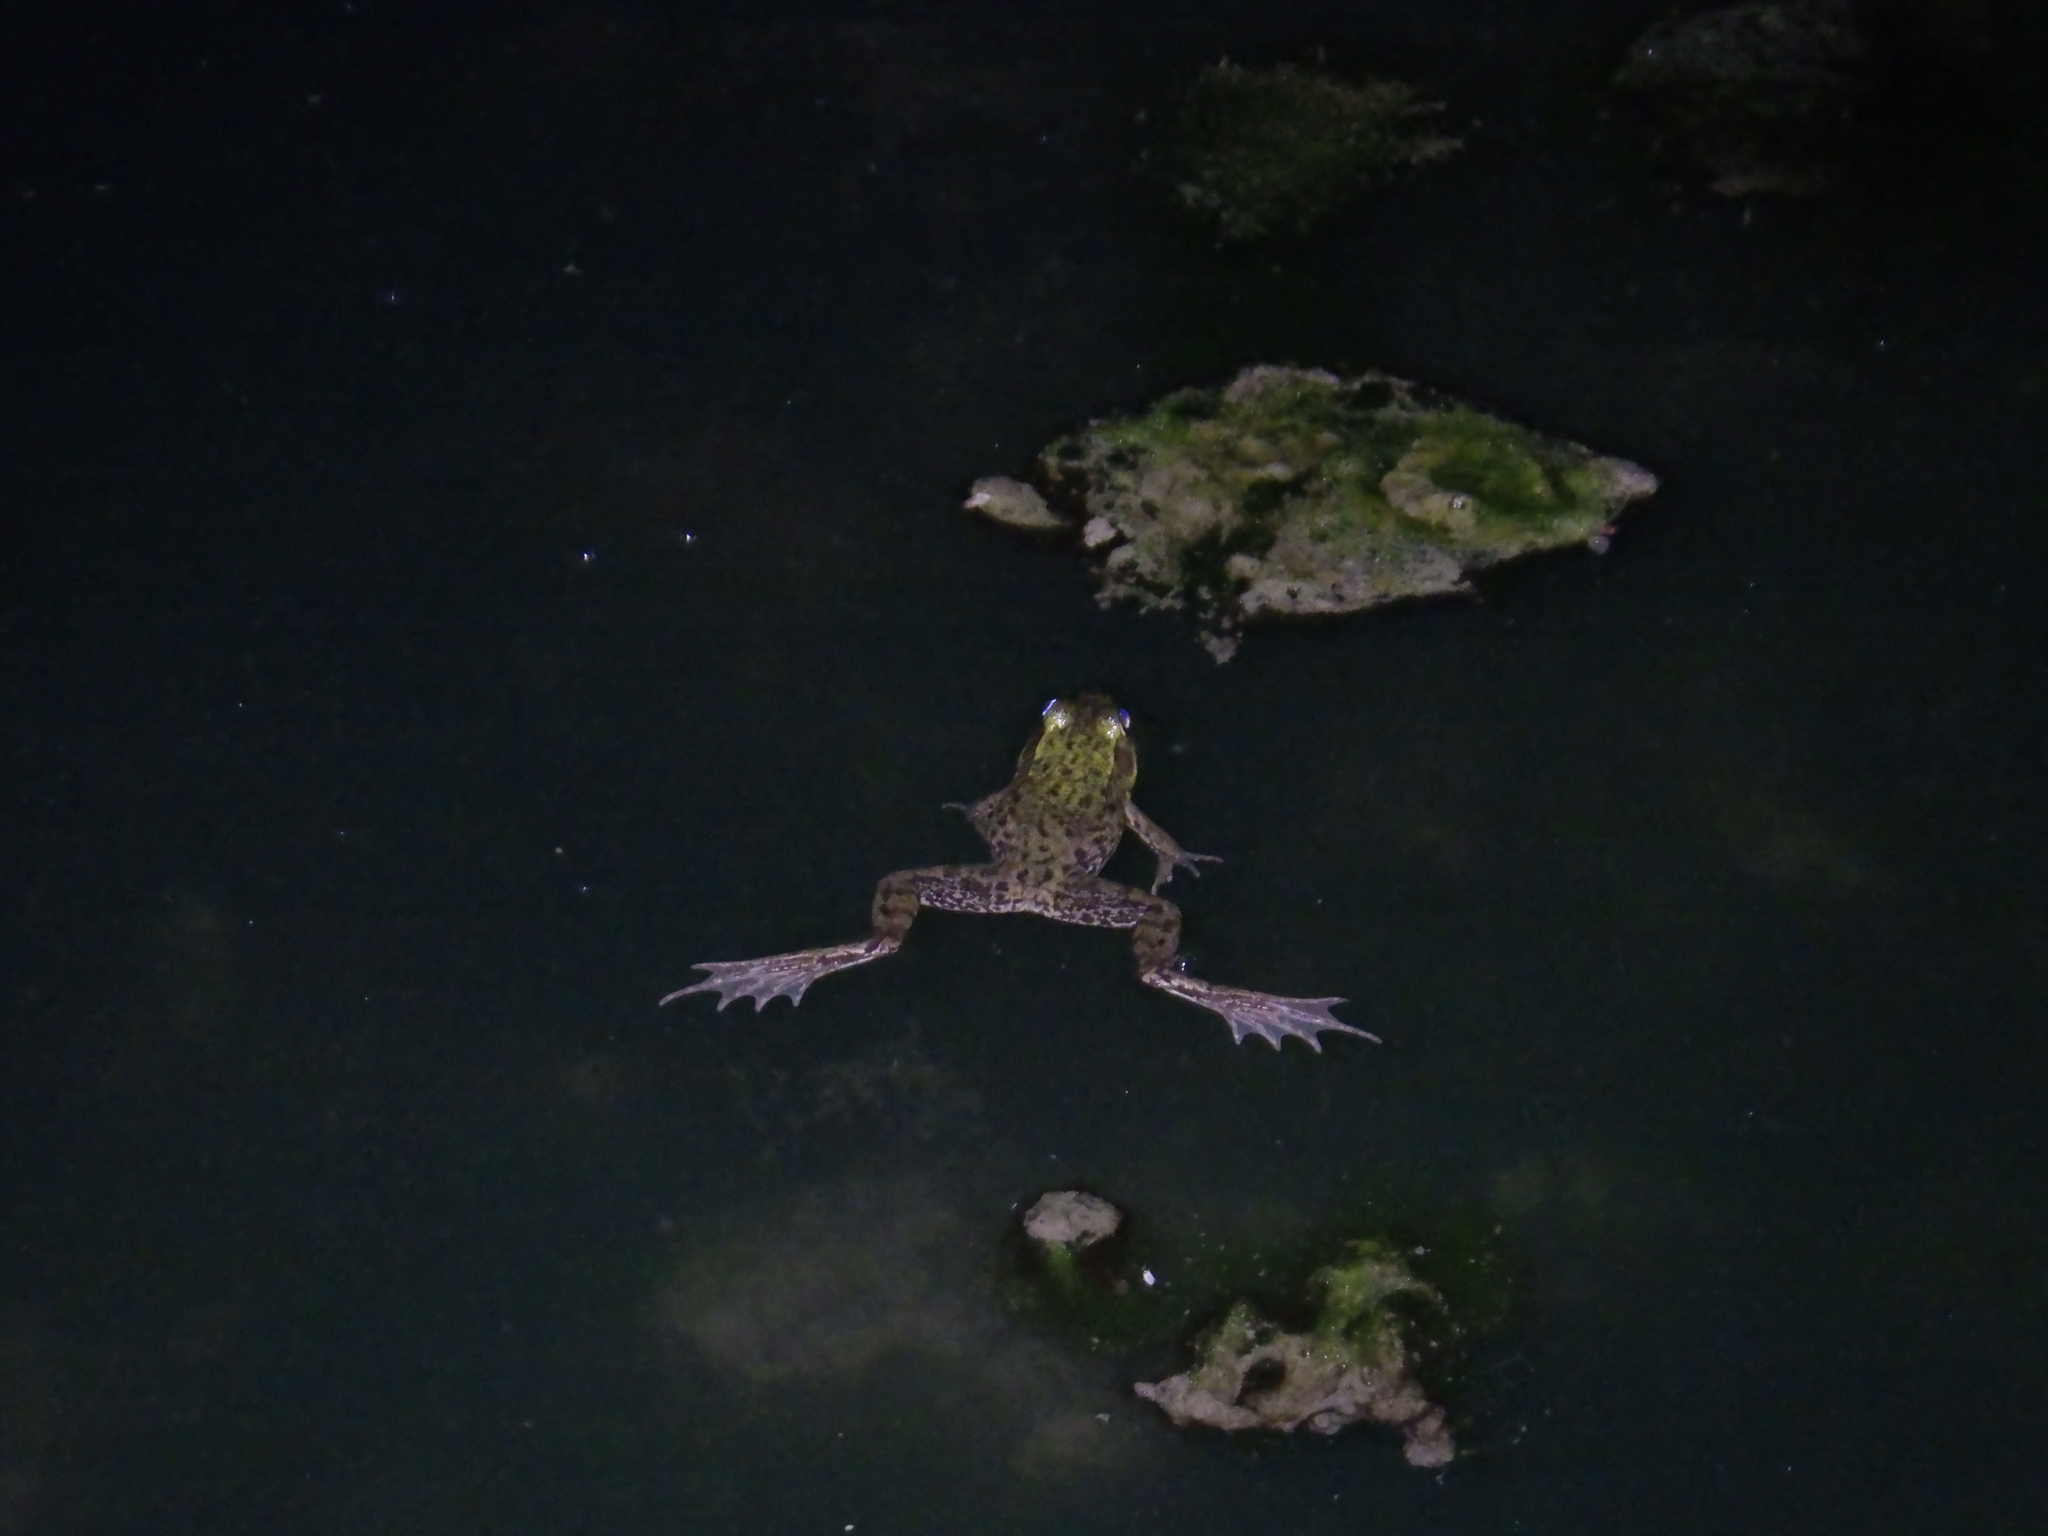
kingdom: Animalia
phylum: Chordata
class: Amphibia
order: Anura
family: Ranidae
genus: Lithobates
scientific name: Lithobates clamitans
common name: Green frog
